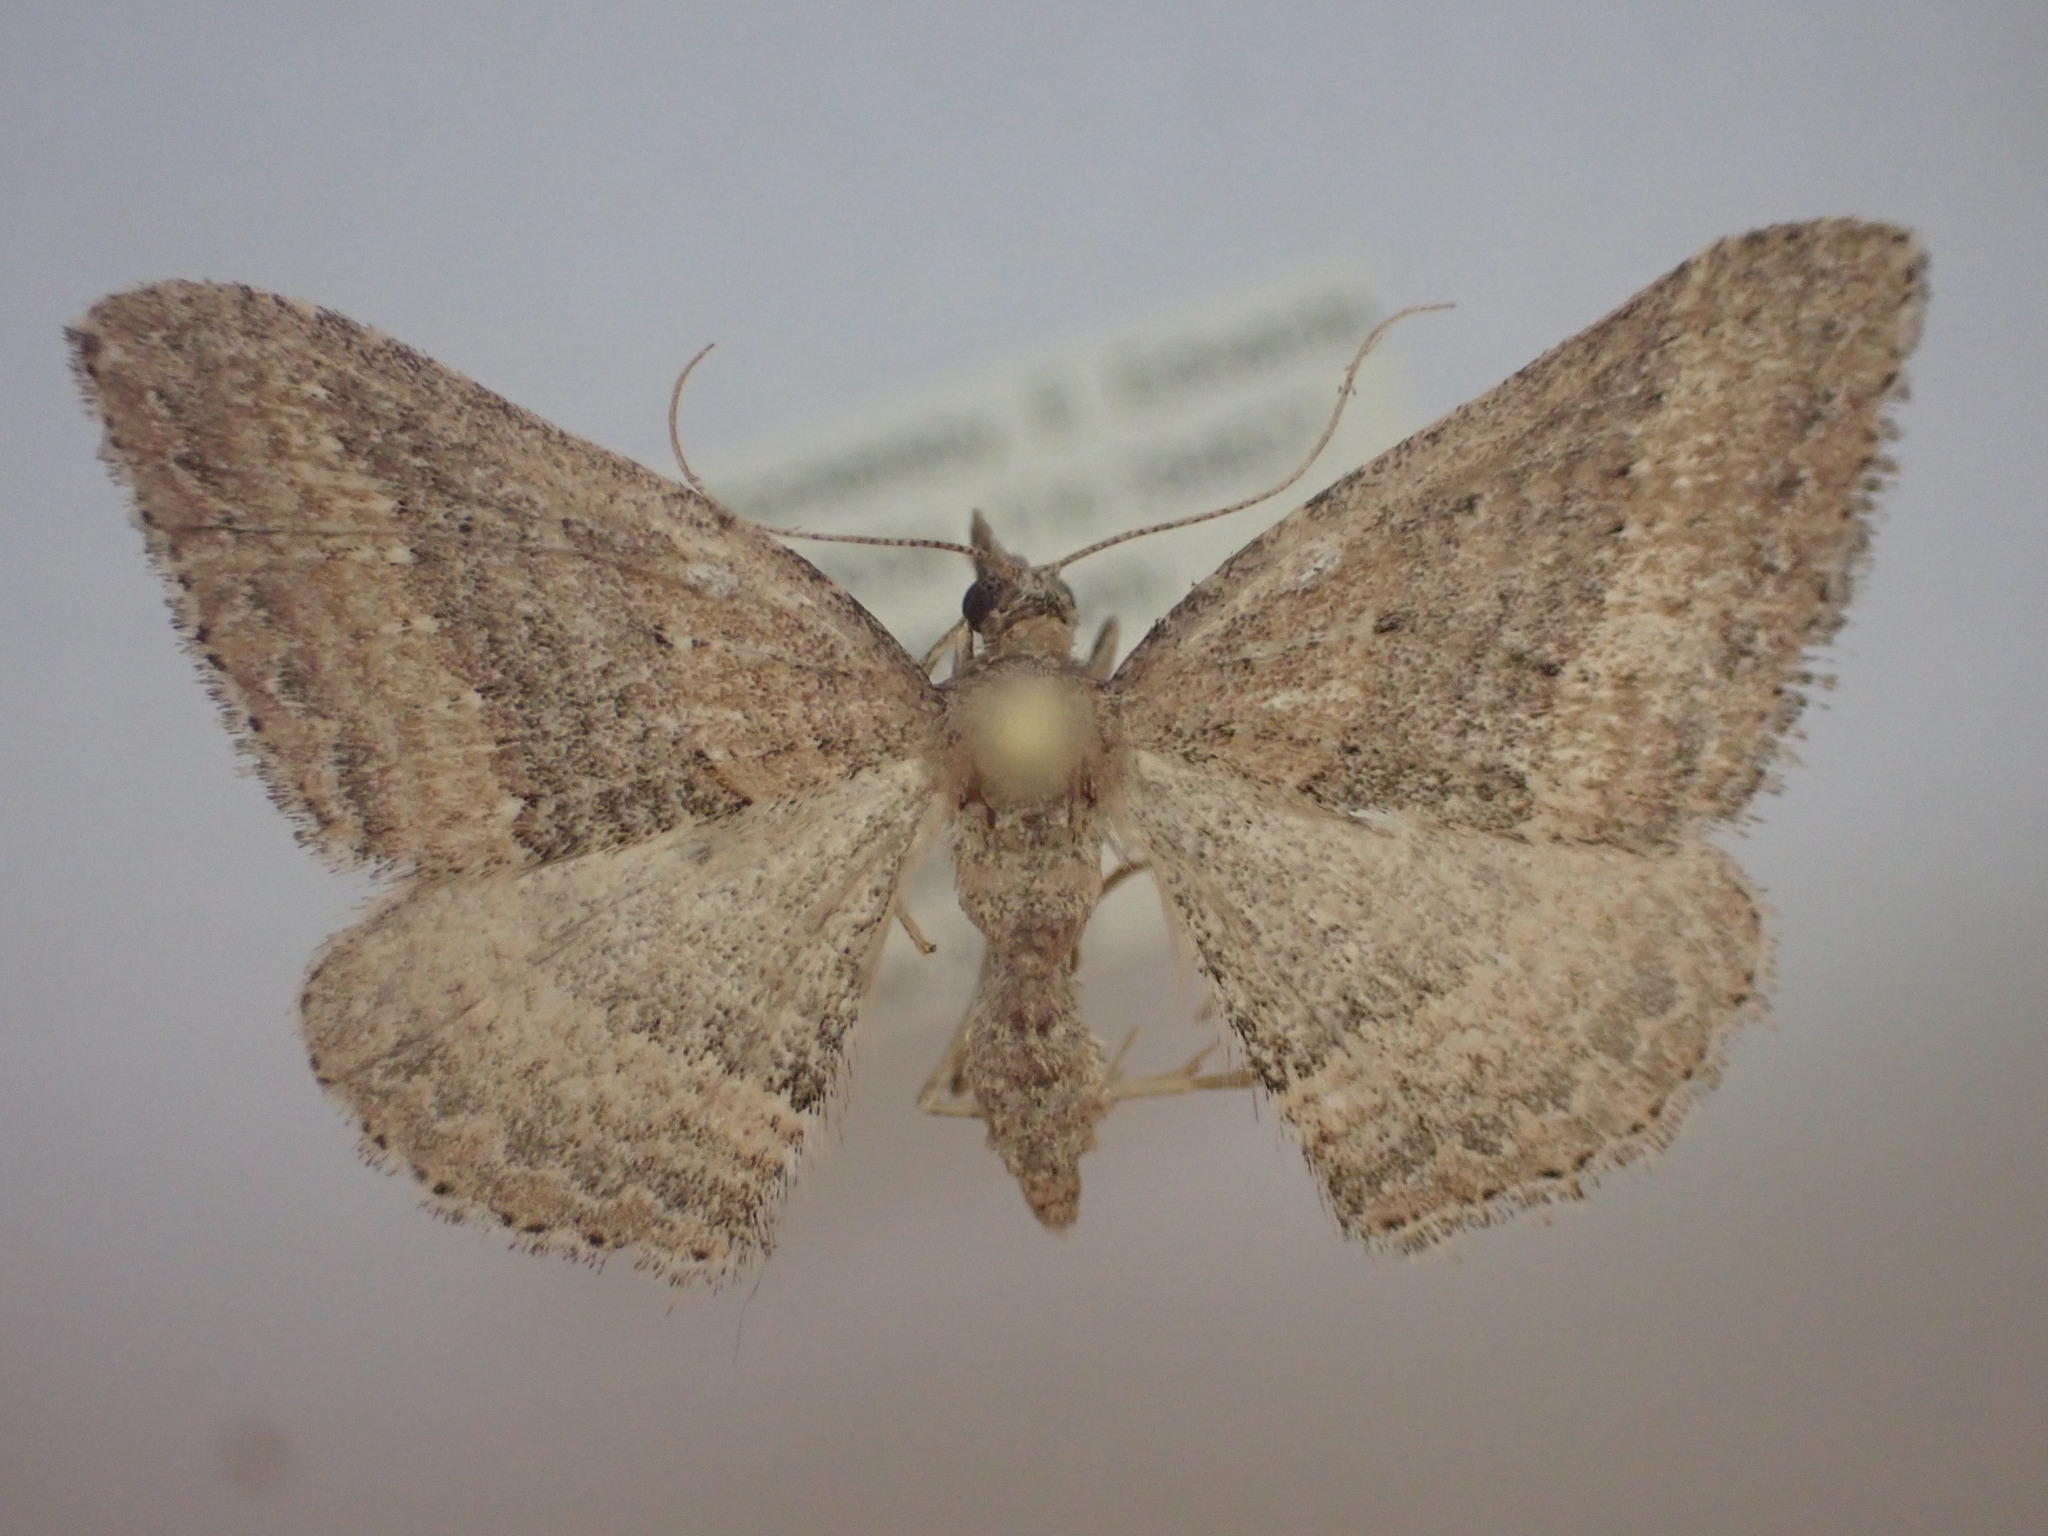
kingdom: Animalia
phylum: Arthropoda
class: Insecta
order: Lepidoptera
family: Geometridae
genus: Epyaxa
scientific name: Epyaxa venipunctata
